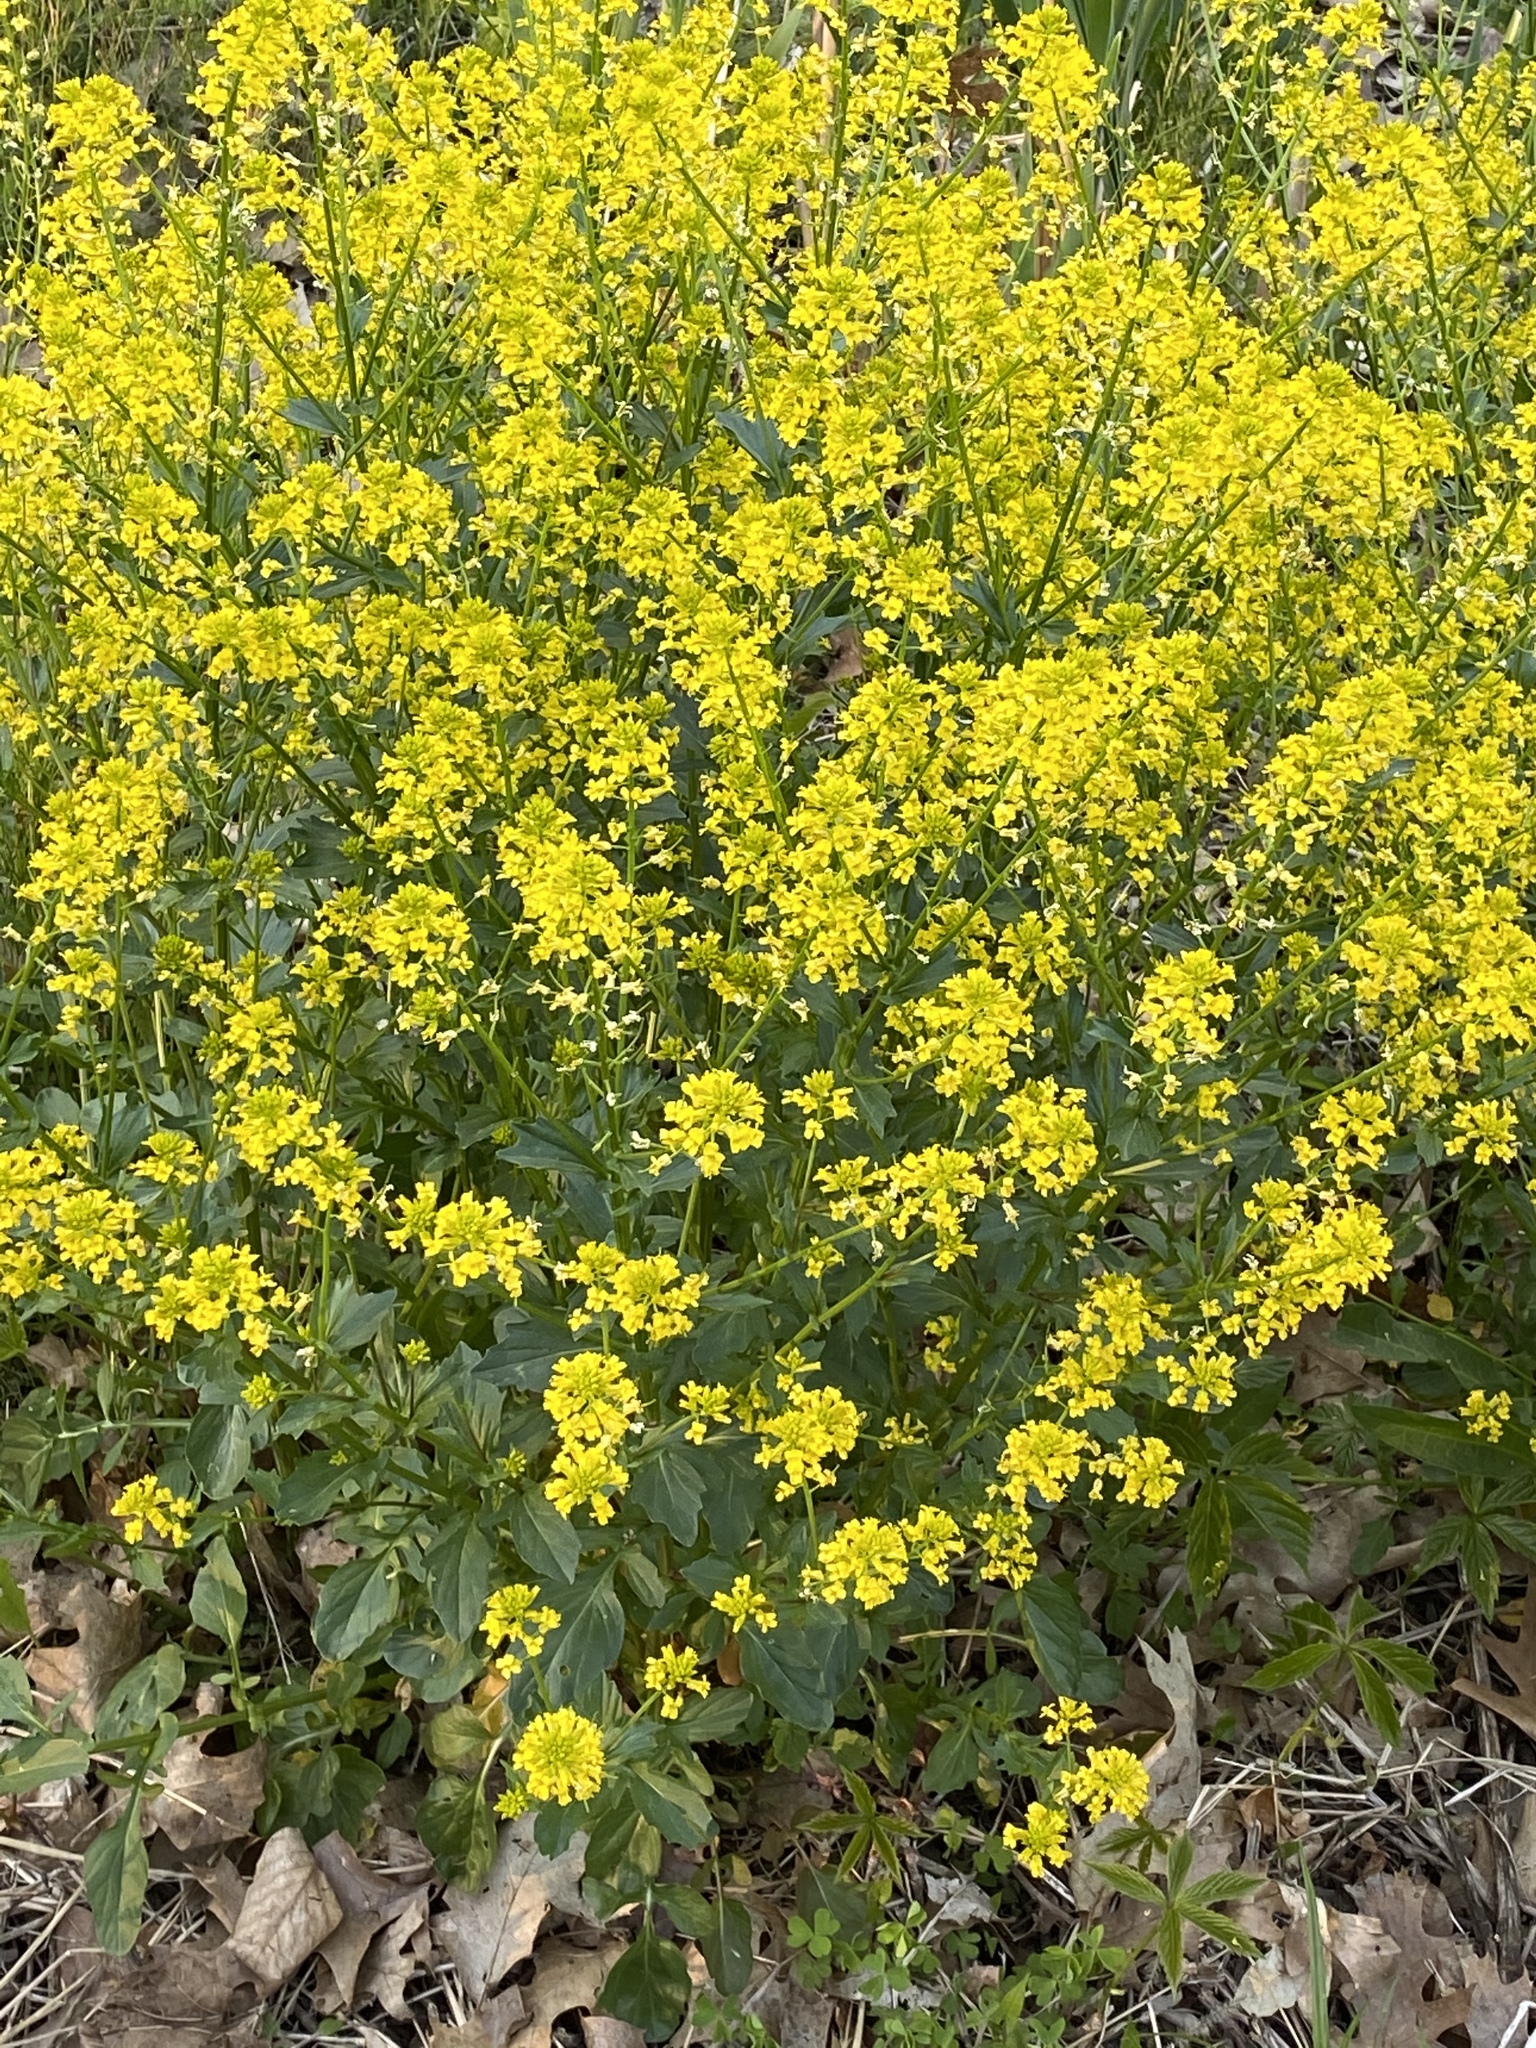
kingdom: Plantae
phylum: Tracheophyta
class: Magnoliopsida
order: Brassicales
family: Brassicaceae
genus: Barbarea
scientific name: Barbarea vulgaris
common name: Cressy-greens
